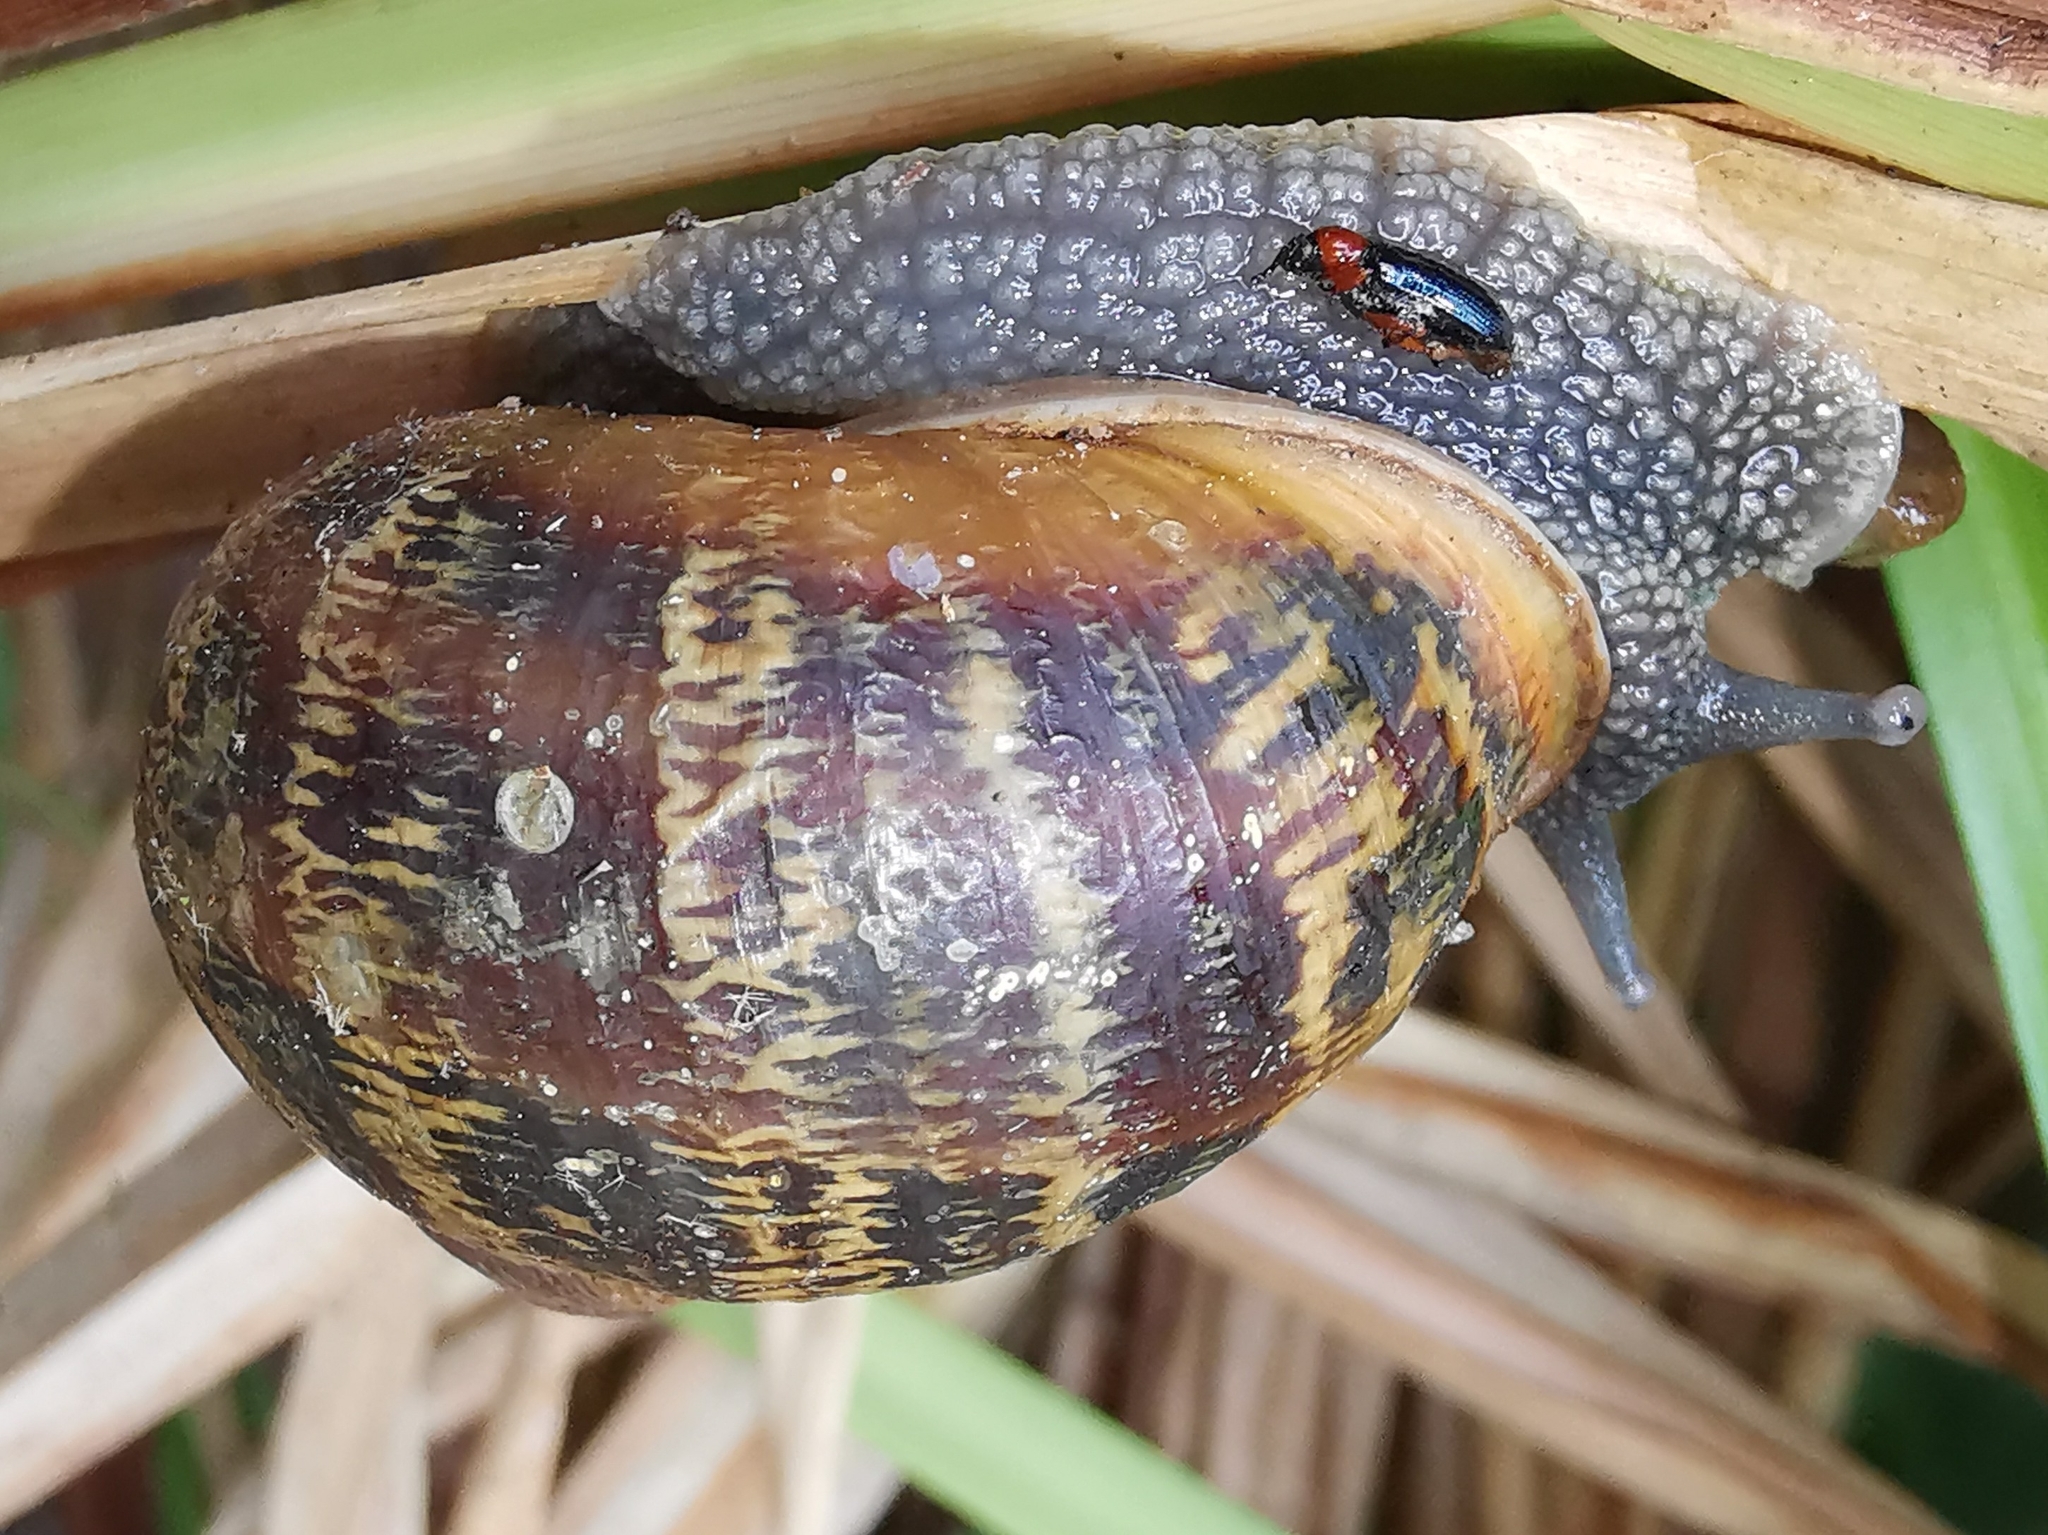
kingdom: Animalia
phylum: Mollusca
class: Gastropoda
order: Stylommatophora
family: Helicidae
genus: Cornu
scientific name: Cornu aspersum
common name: Brown garden snail
